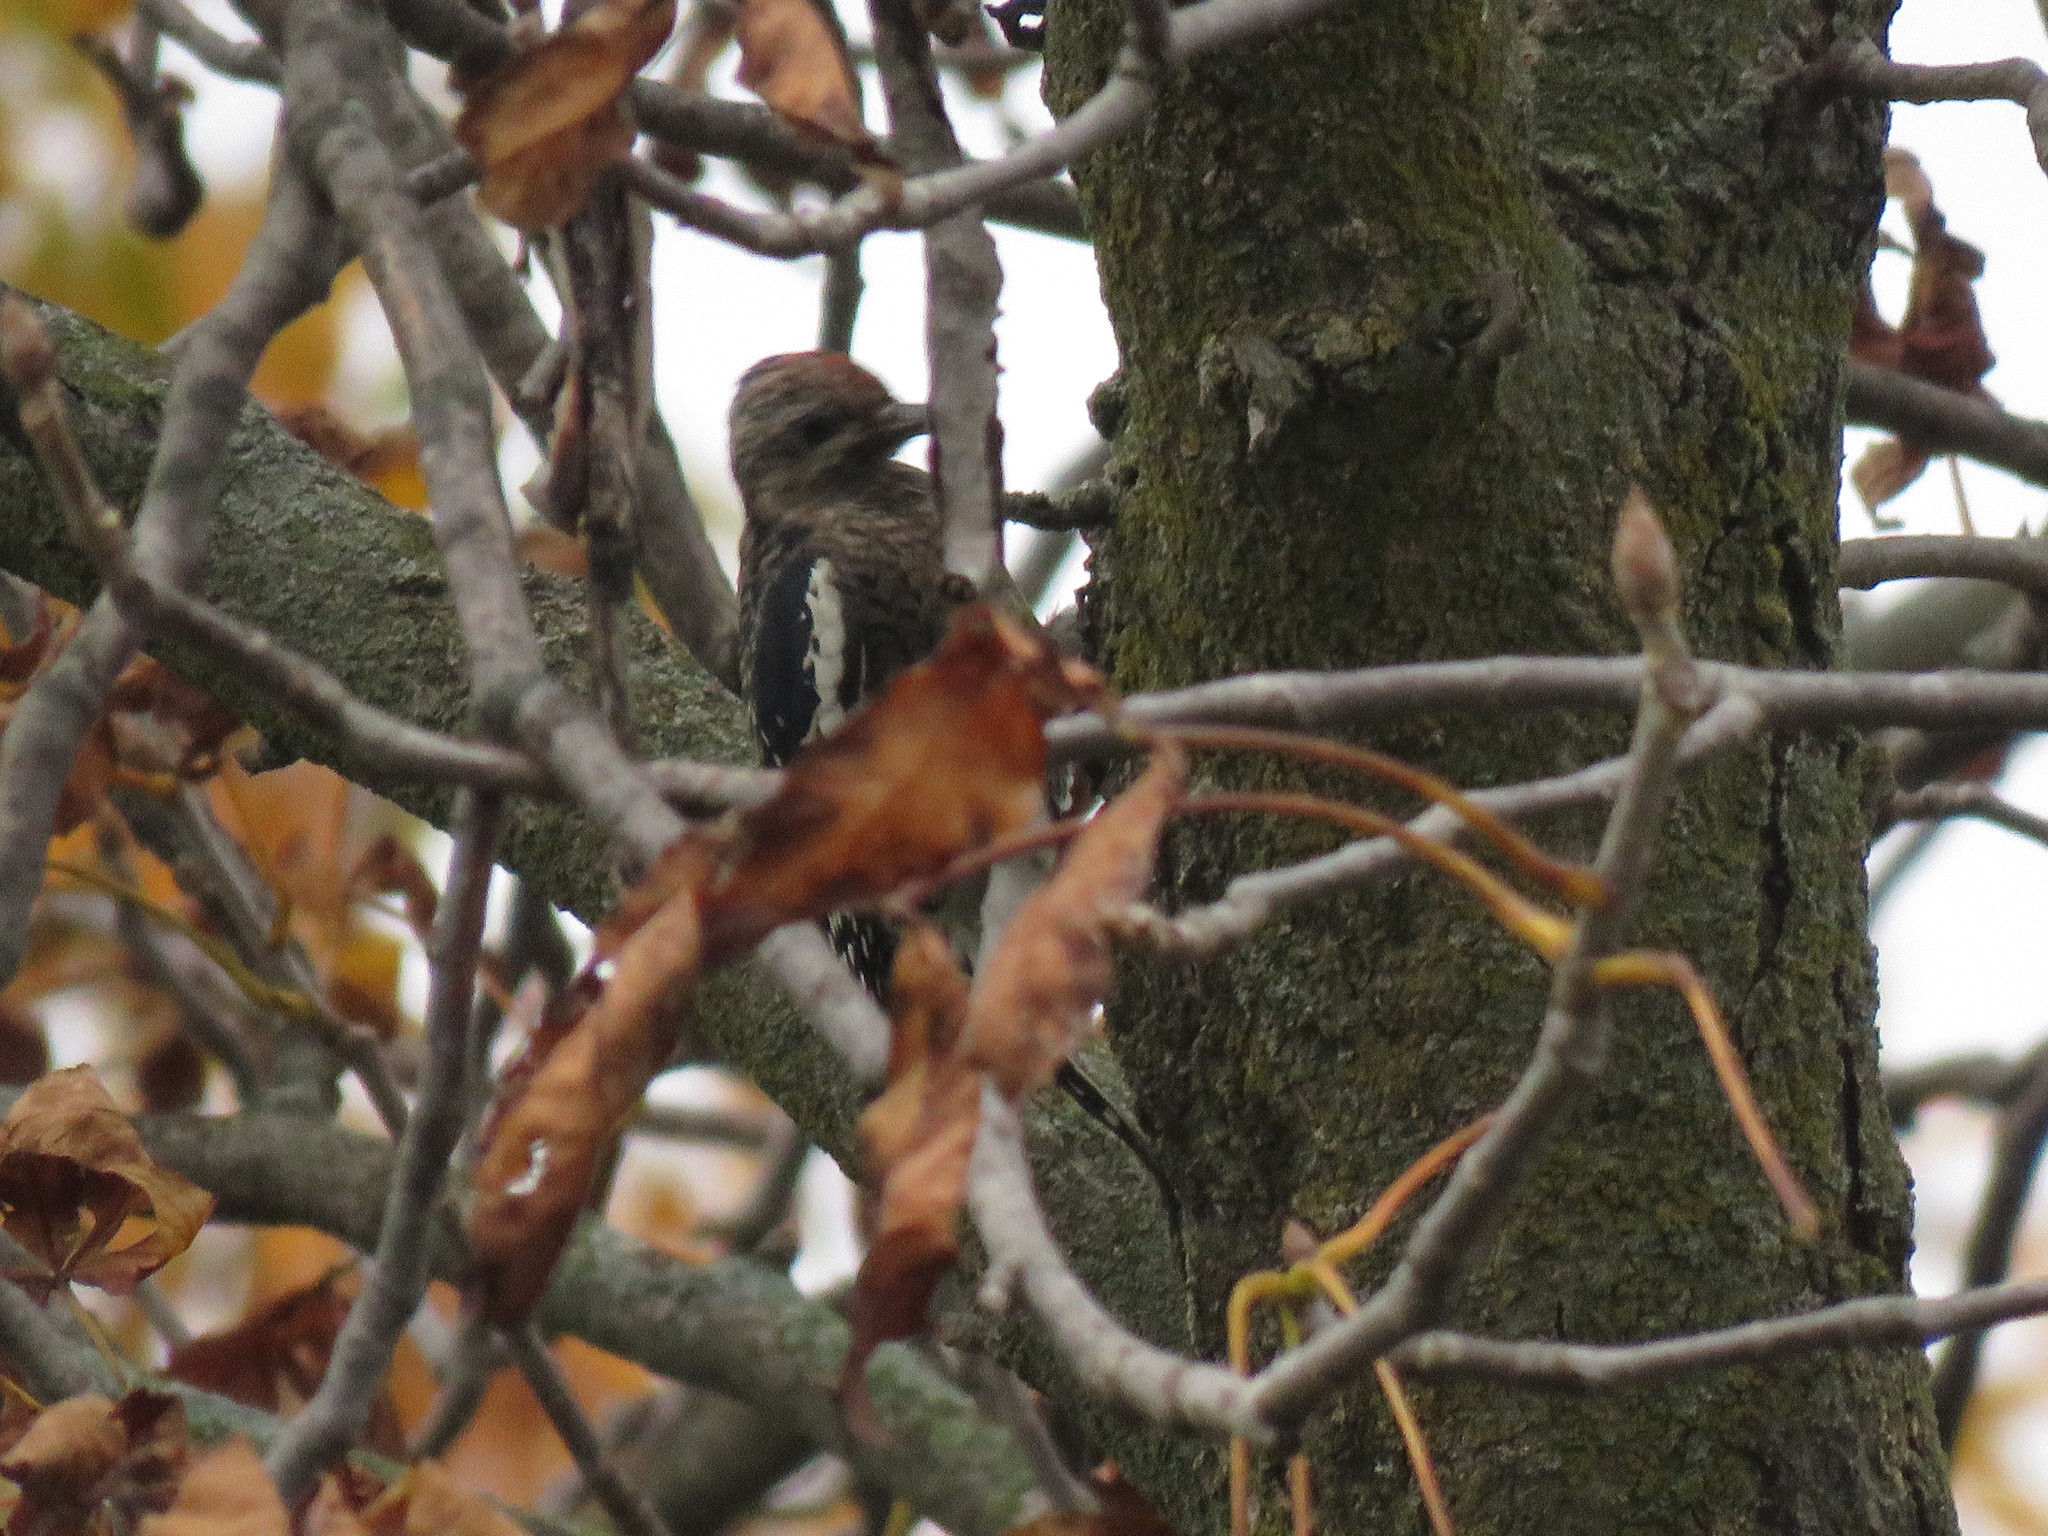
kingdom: Animalia
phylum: Chordata
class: Aves
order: Piciformes
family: Picidae
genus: Sphyrapicus
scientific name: Sphyrapicus varius
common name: Yellow-bellied sapsucker
